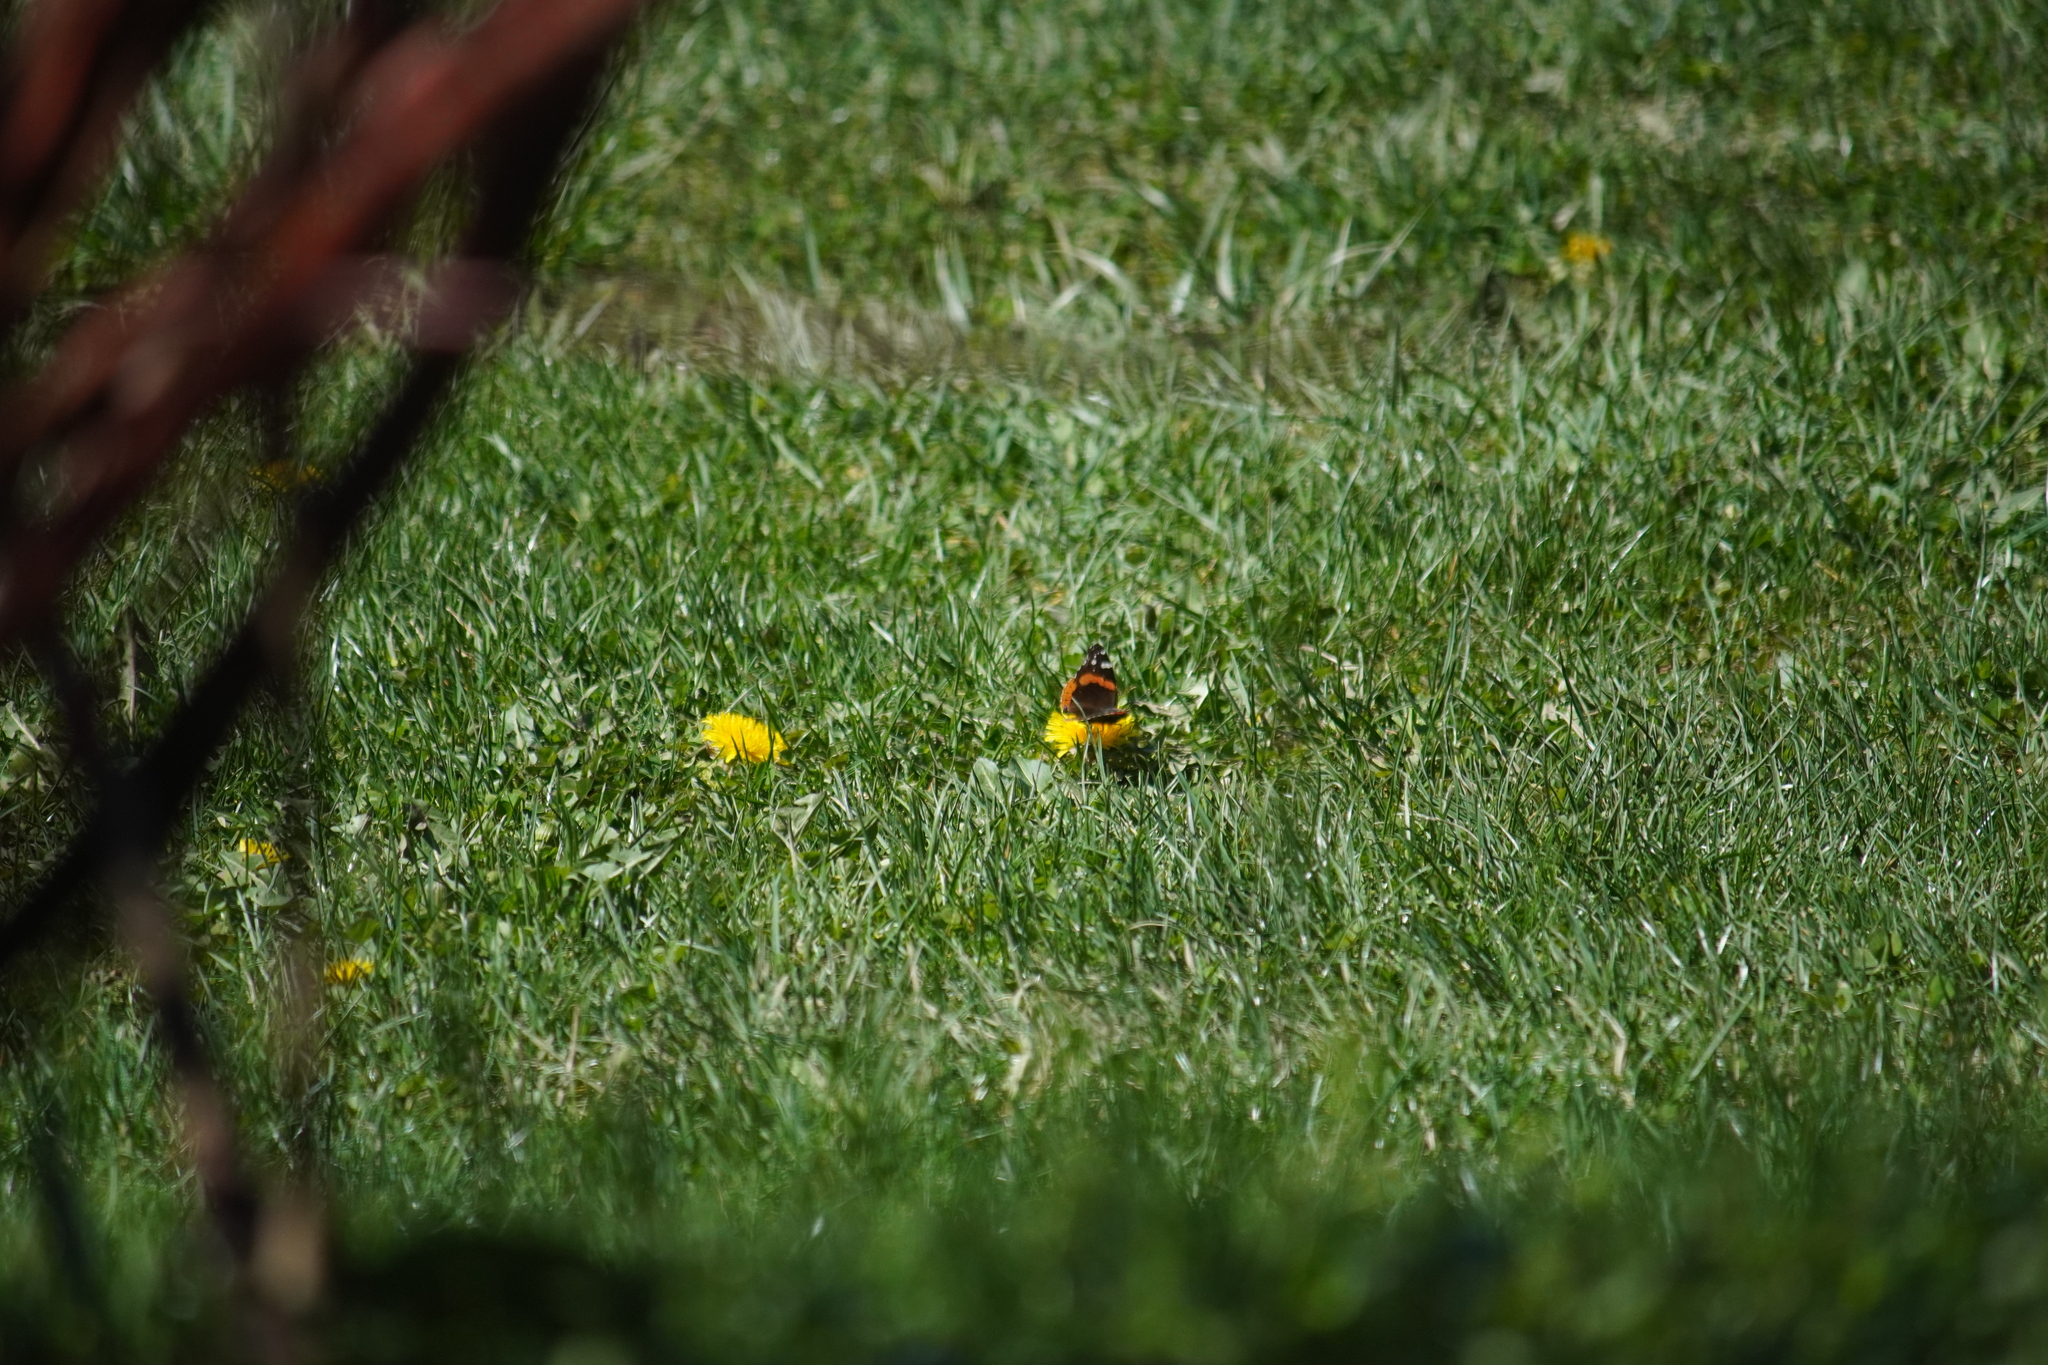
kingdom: Animalia
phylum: Arthropoda
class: Insecta
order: Lepidoptera
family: Nymphalidae
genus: Vanessa
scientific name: Vanessa atalanta
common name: Red admiral
